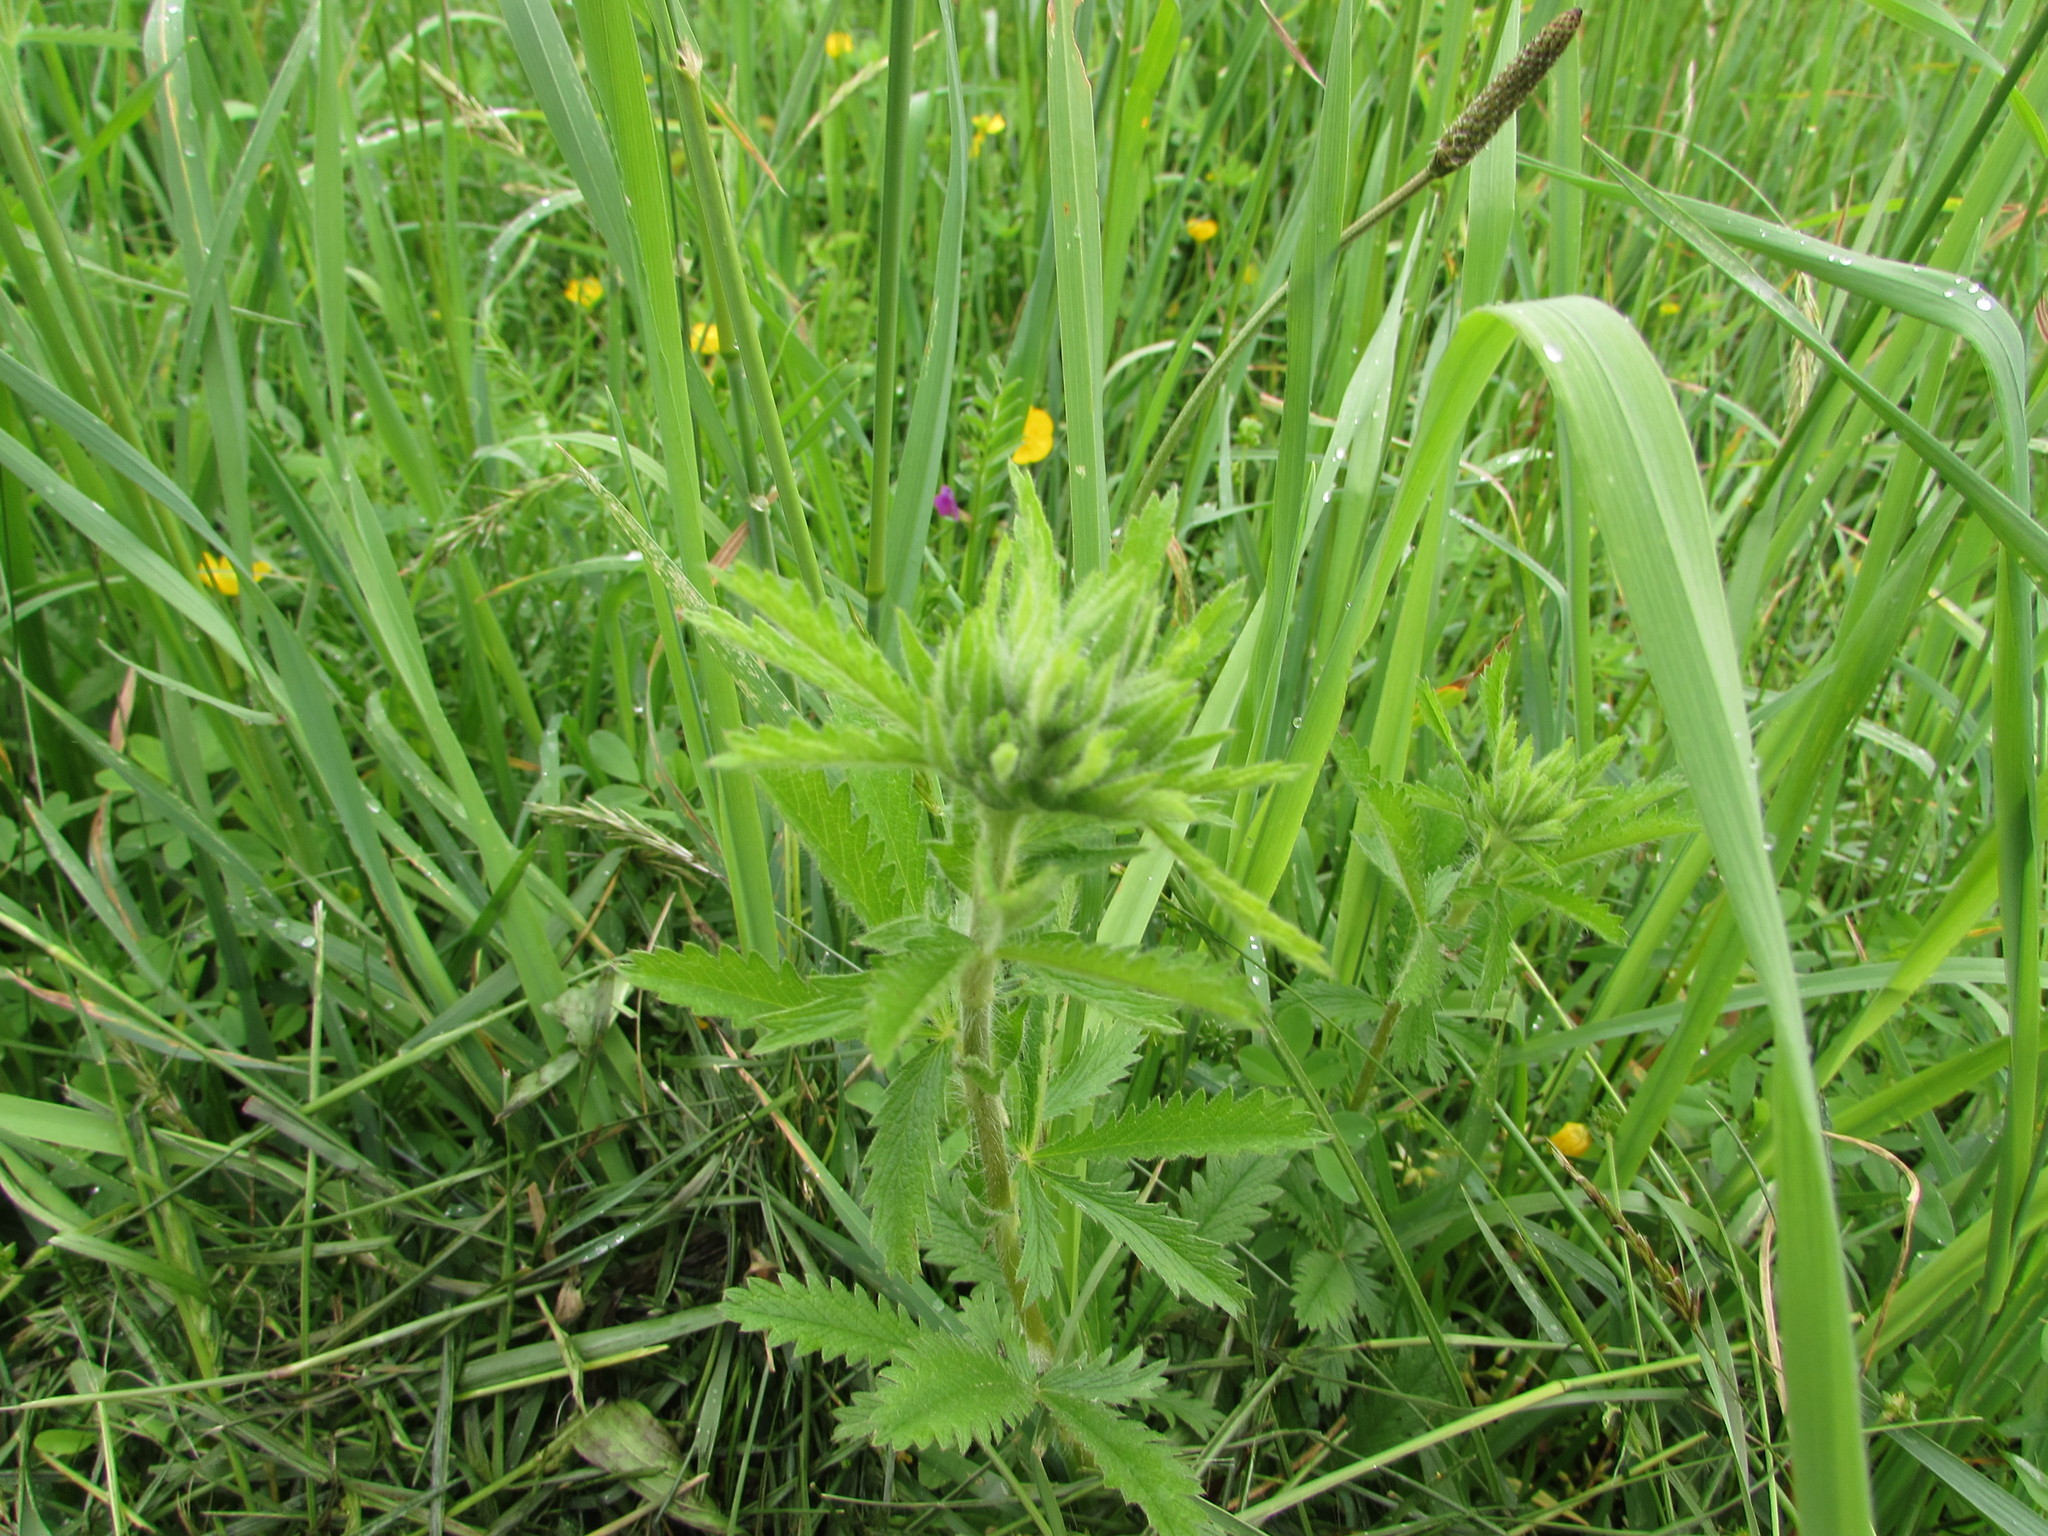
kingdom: Plantae
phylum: Tracheophyta
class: Magnoliopsida
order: Rosales
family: Rosaceae
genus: Potentilla
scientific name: Potentilla recta
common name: Sulphur cinquefoil
